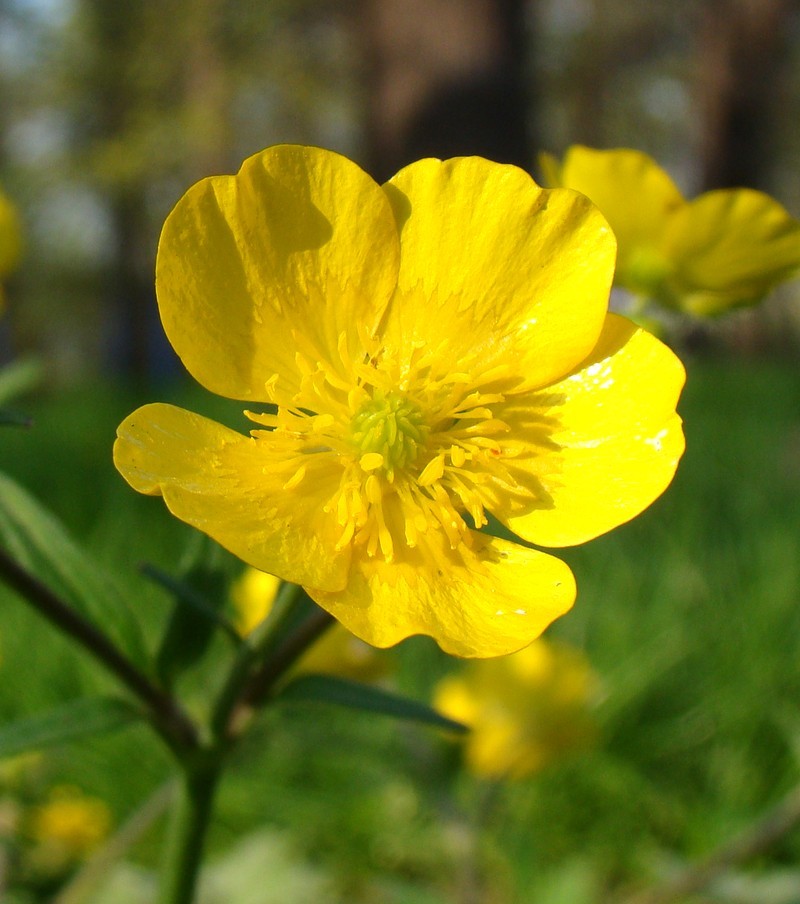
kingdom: Plantae
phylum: Tracheophyta
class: Magnoliopsida
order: Ranunculales
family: Ranunculaceae
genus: Ranunculus
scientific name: Ranunculus constantinopolitanus
